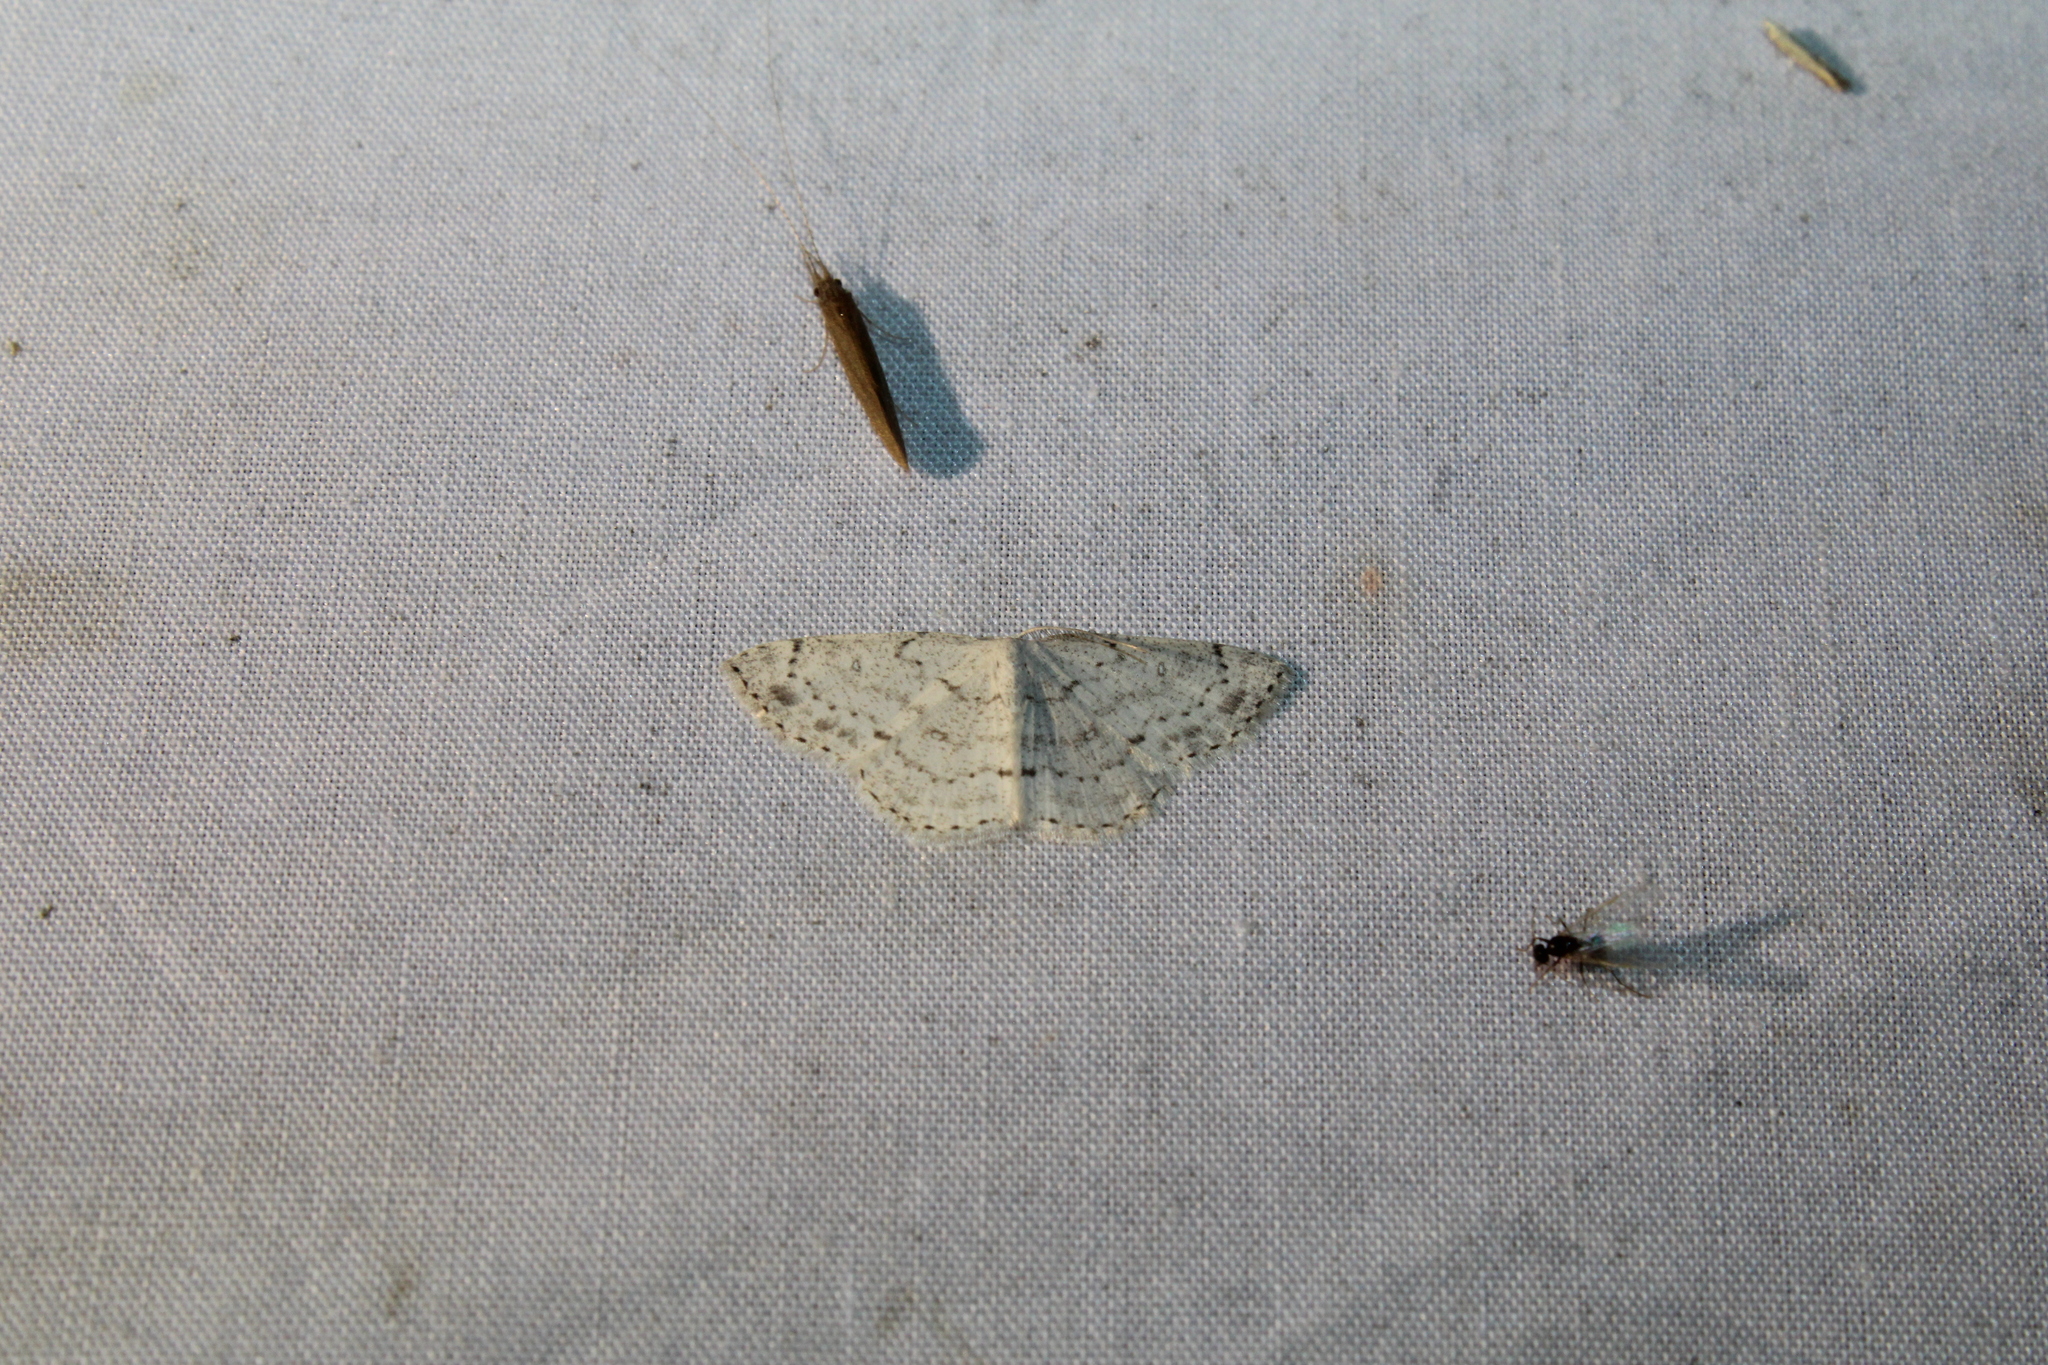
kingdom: Animalia
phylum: Arthropoda
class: Insecta
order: Lepidoptera
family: Geometridae
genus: Cyclophora
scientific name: Cyclophora pendulinaria
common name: Sweet fern geometer
